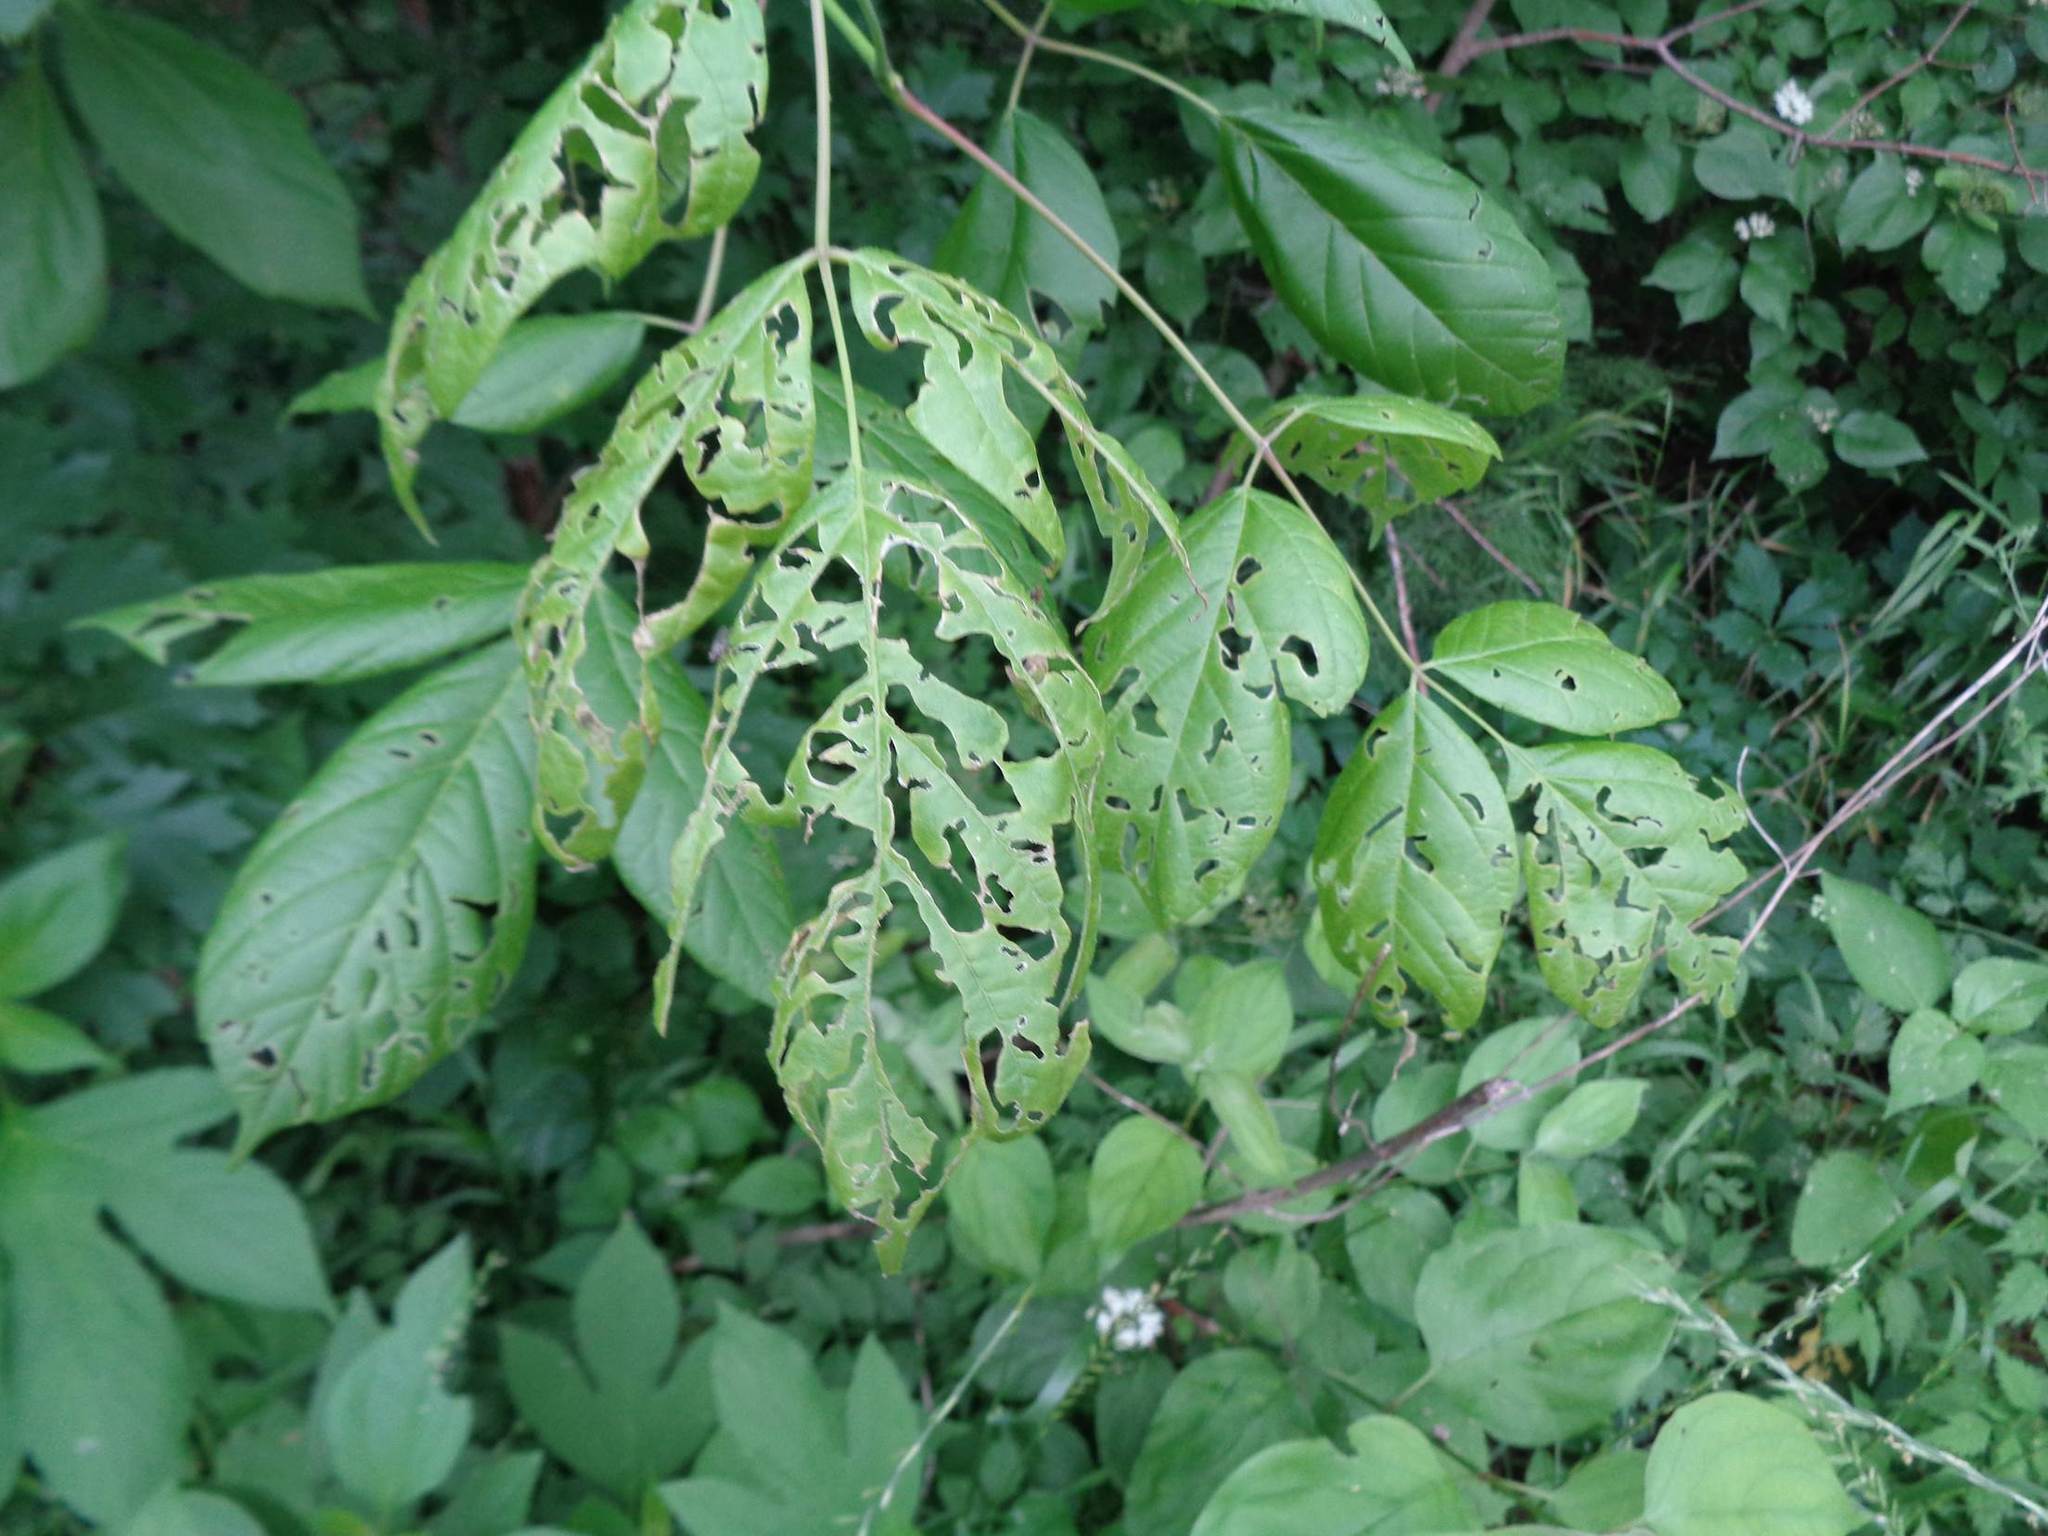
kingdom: Plantae
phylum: Tracheophyta
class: Magnoliopsida
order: Sapindales
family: Sapindaceae
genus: Acer
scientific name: Acer negundo
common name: Ashleaf maple
